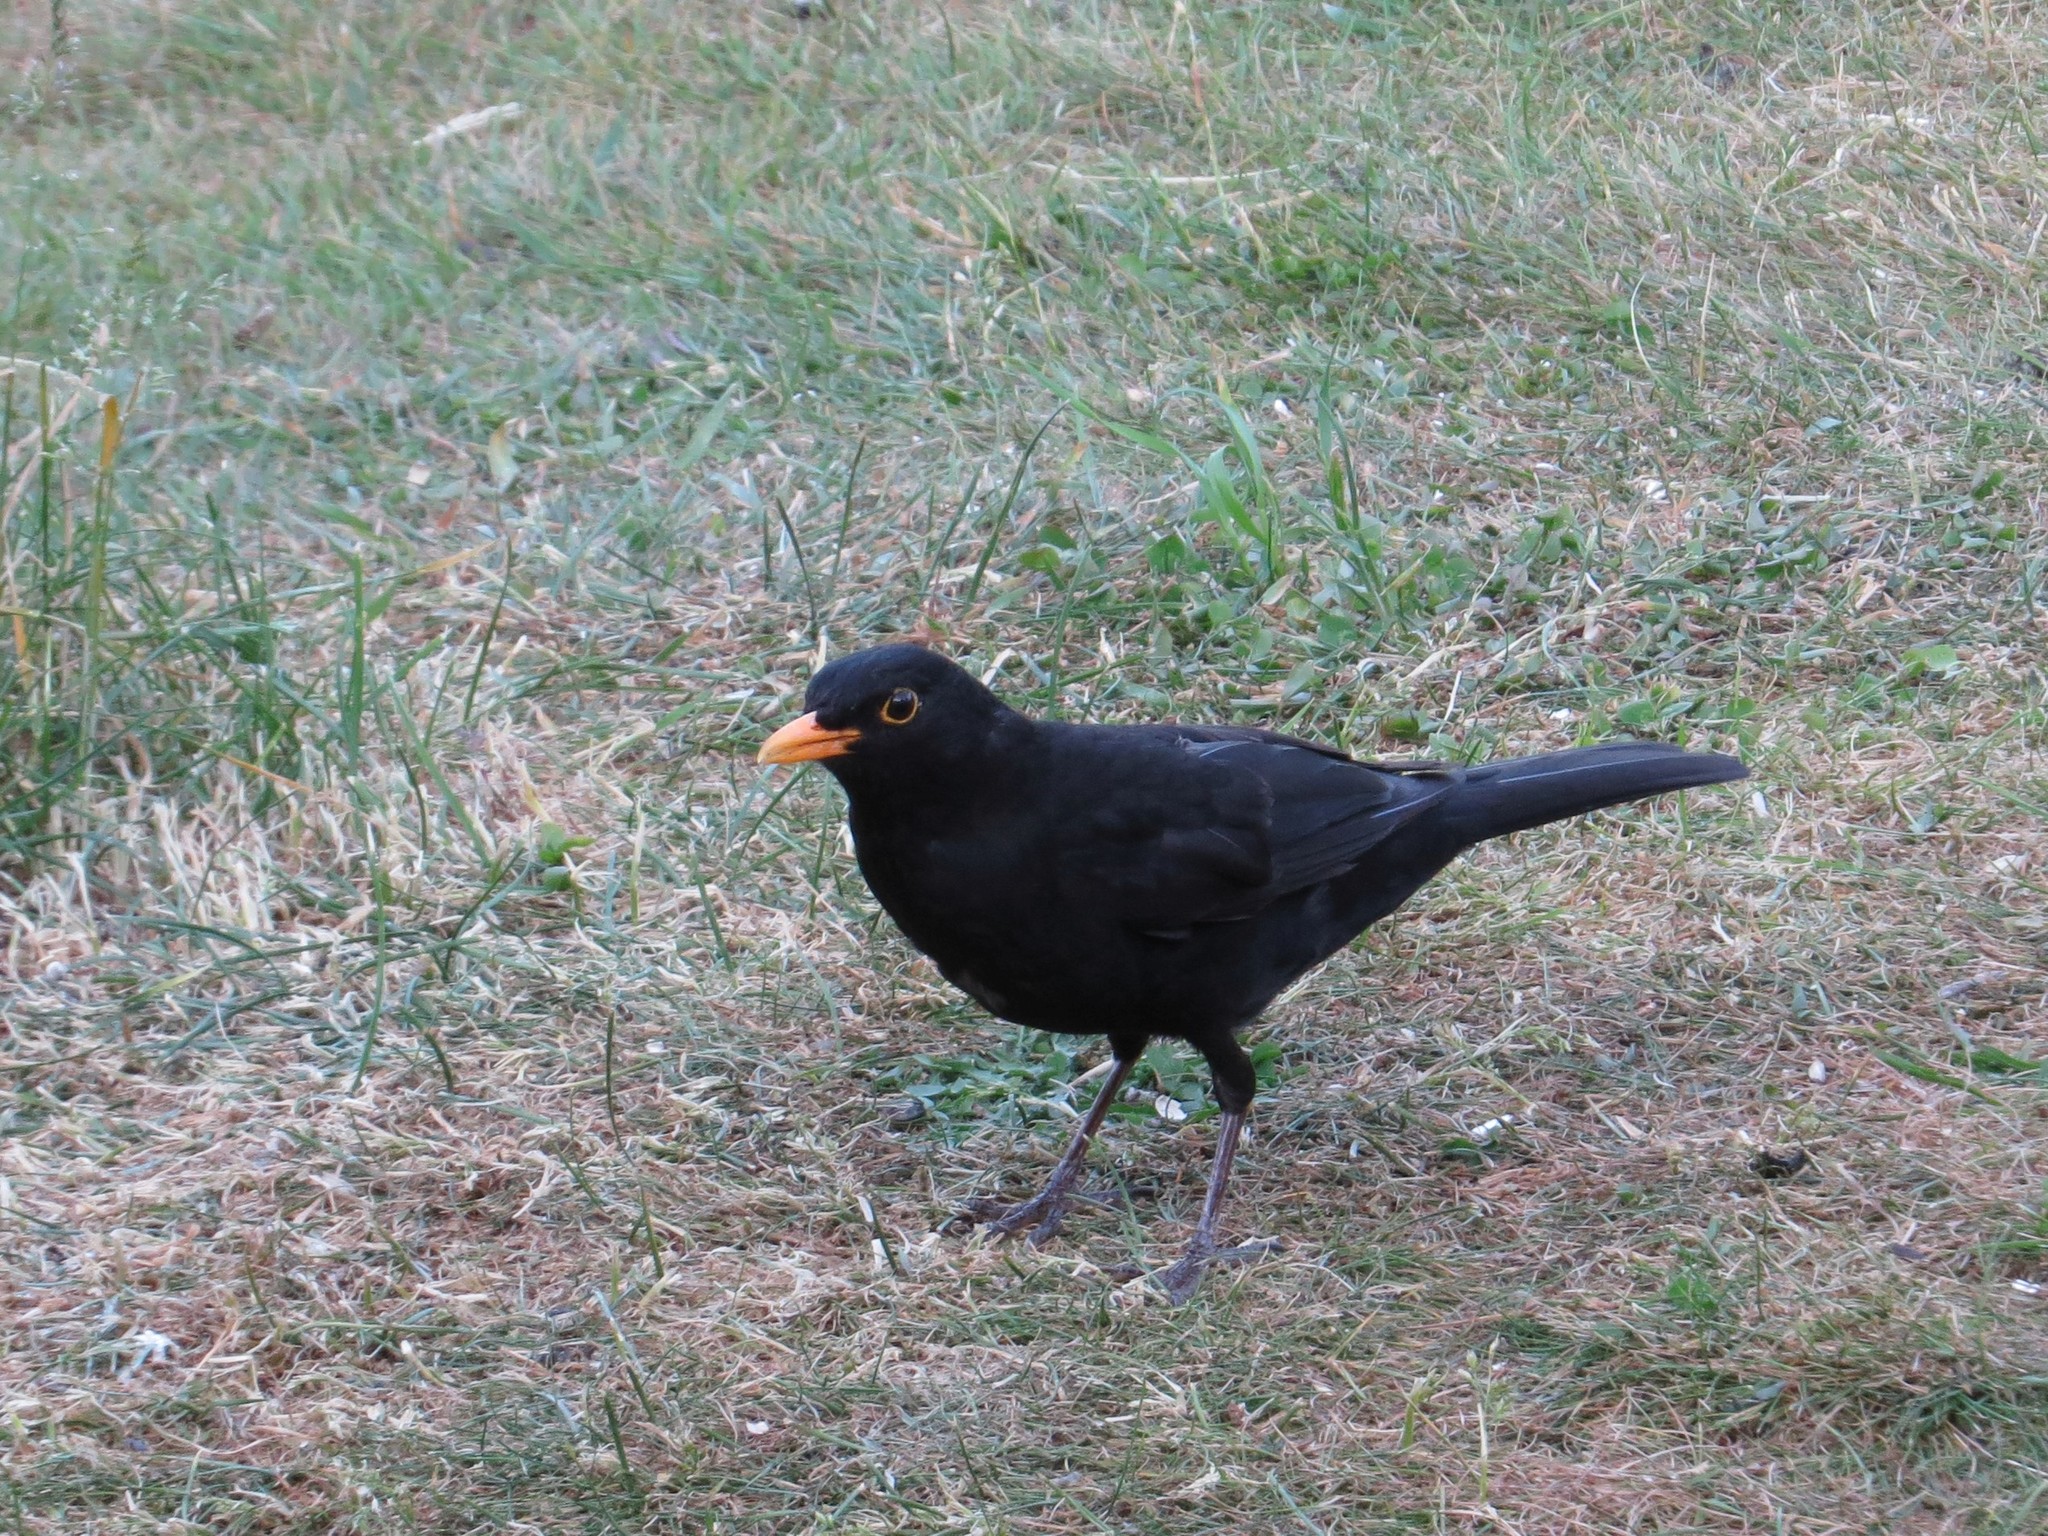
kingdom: Animalia
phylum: Chordata
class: Aves
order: Passeriformes
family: Turdidae
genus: Turdus
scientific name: Turdus merula
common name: Common blackbird
